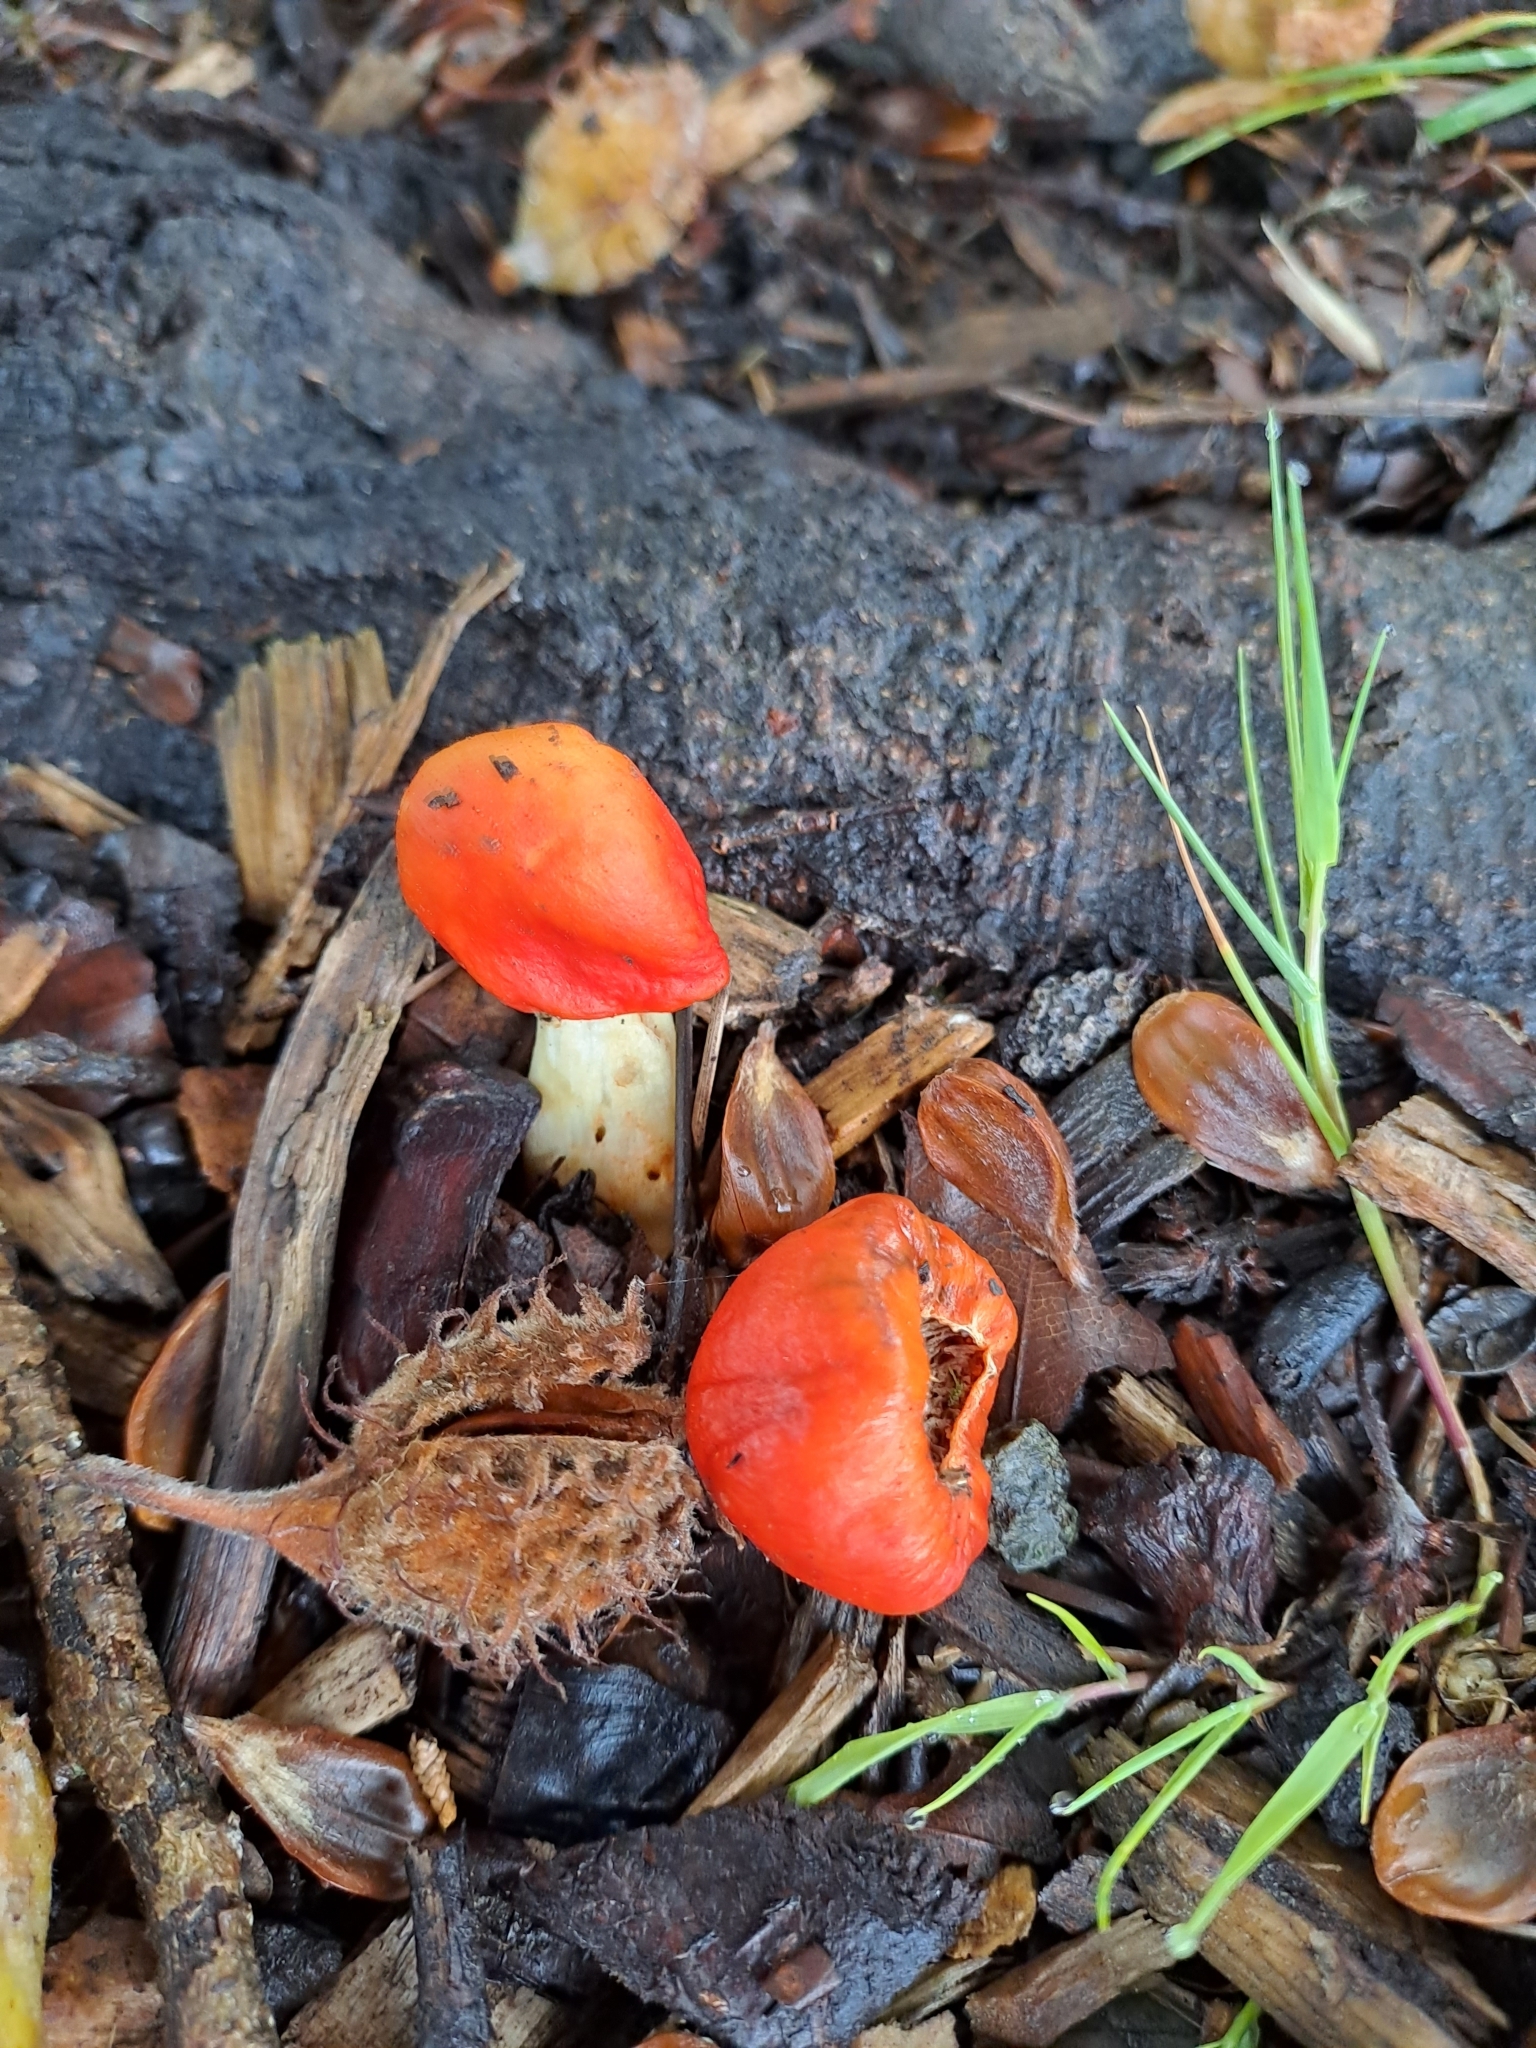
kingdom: Fungi
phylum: Basidiomycota
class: Agaricomycetes
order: Agaricales
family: Strophariaceae
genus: Leratiomyces
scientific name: Leratiomyces erythrocephalus
